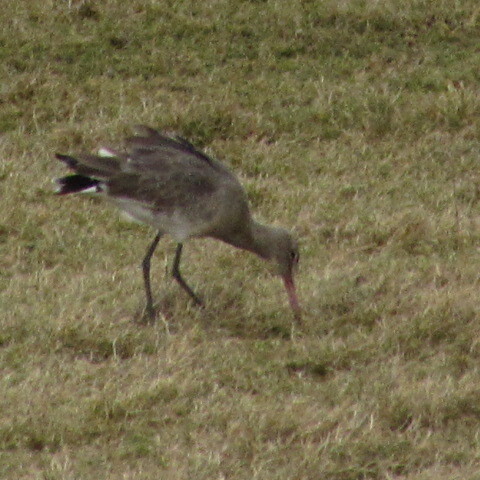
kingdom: Animalia
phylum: Chordata
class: Aves
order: Charadriiformes
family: Scolopacidae
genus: Limosa
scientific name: Limosa limosa
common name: Black-tailed godwit
